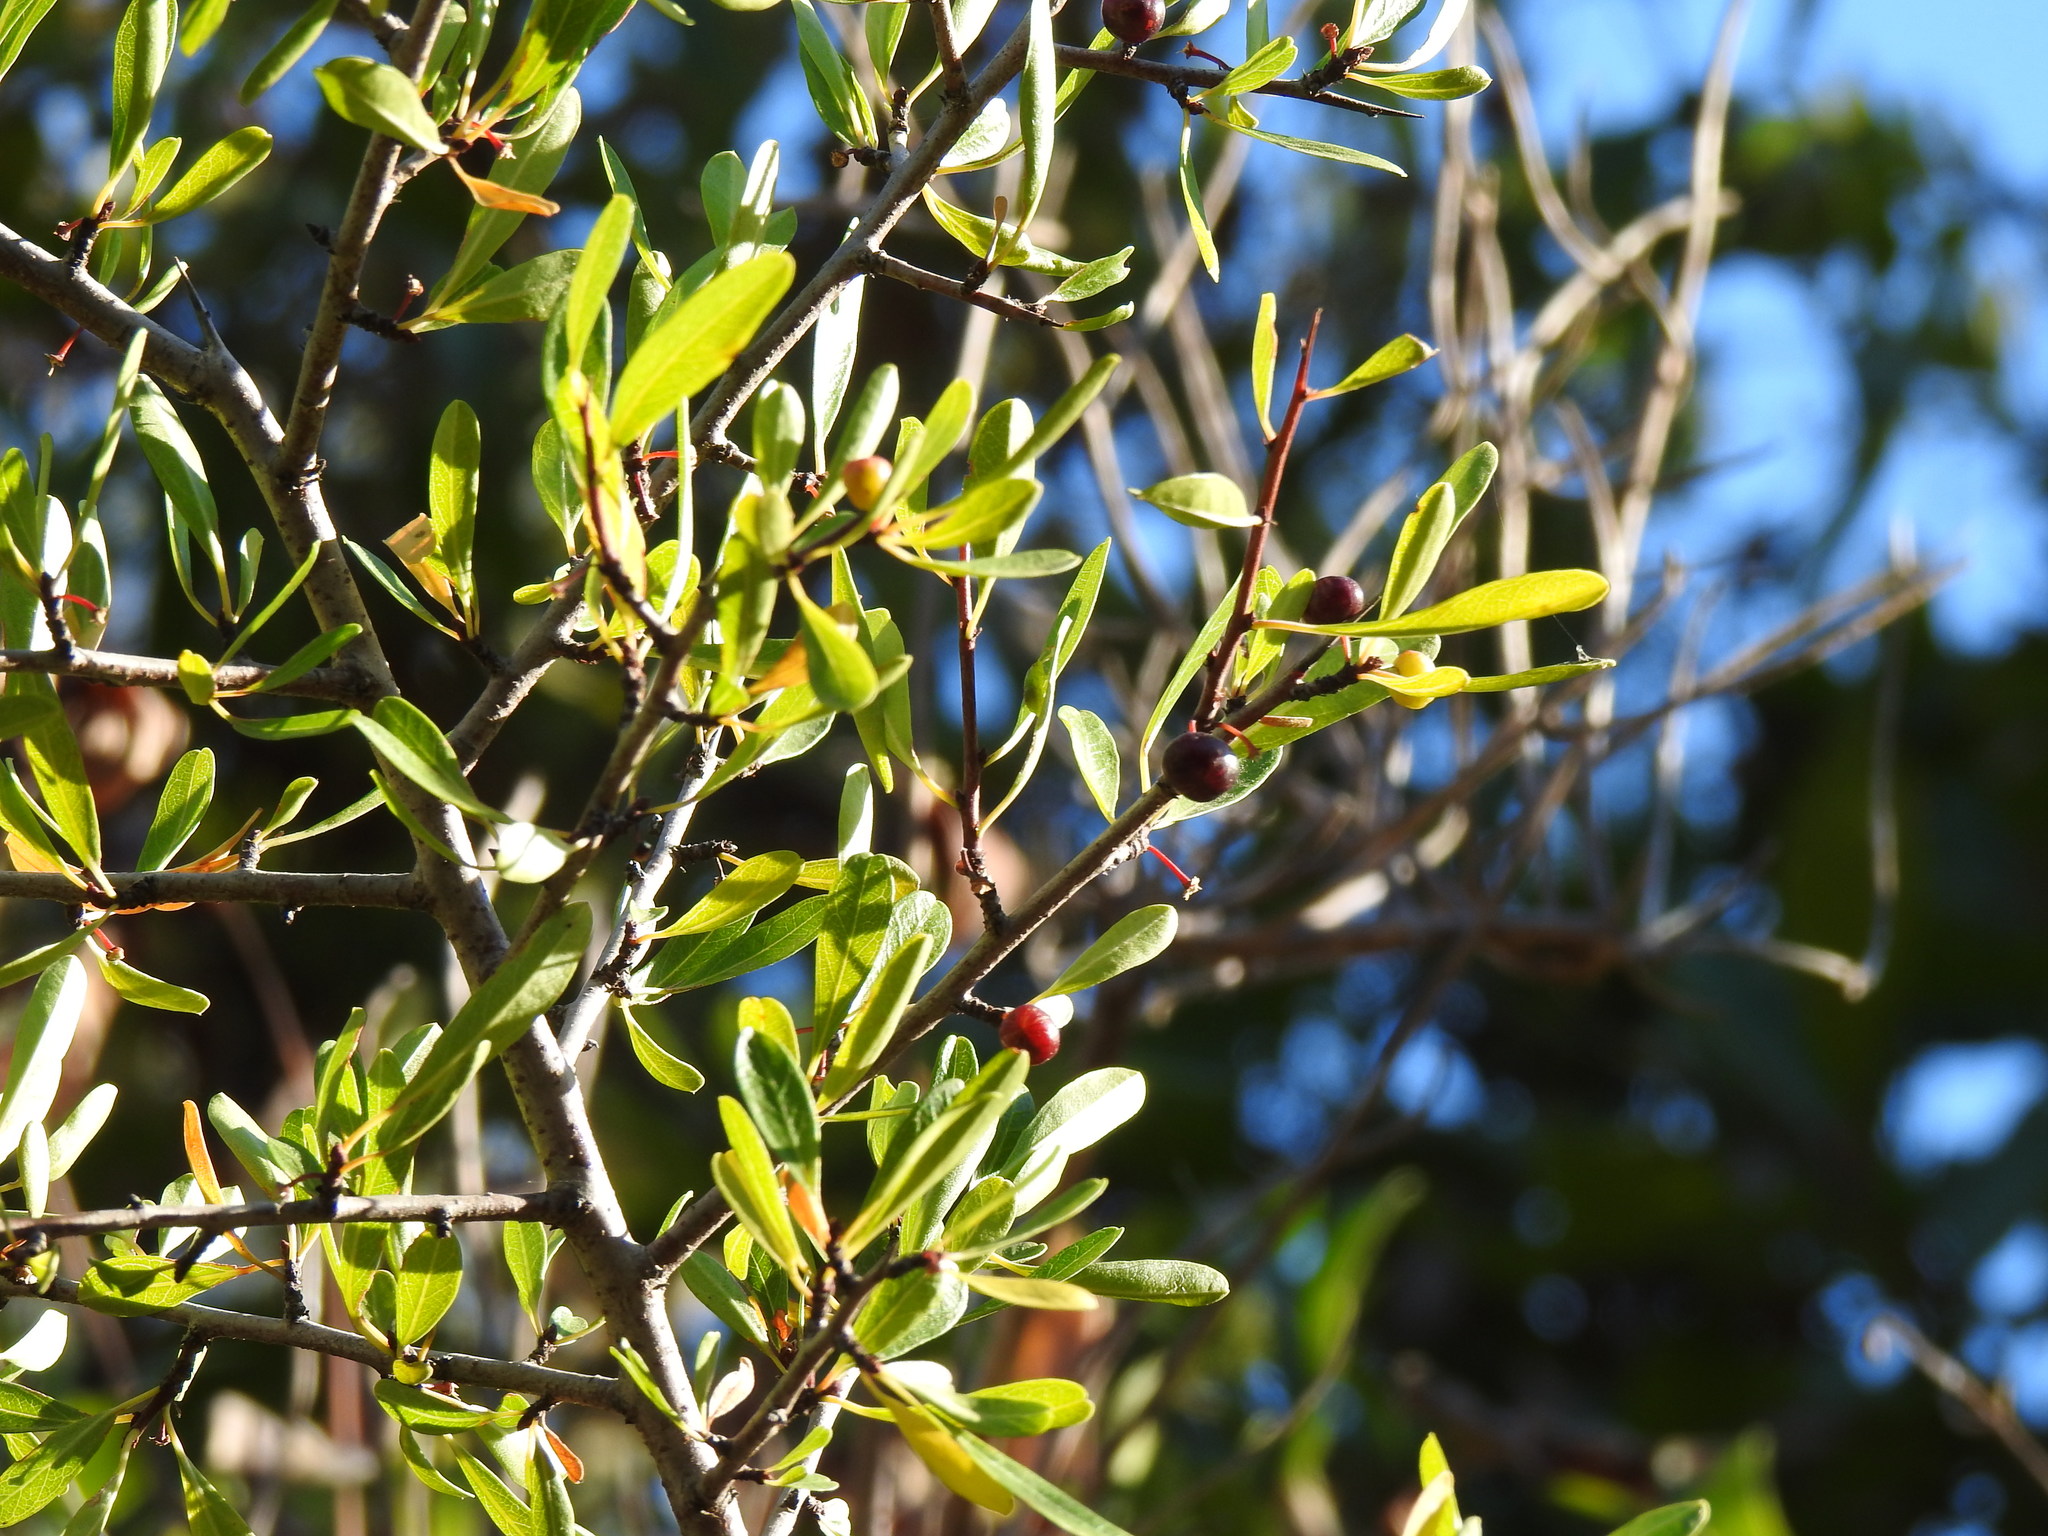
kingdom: Plantae
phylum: Tracheophyta
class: Magnoliopsida
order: Rosales
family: Rhamnaceae
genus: Rhamnus
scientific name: Rhamnus oleoides
